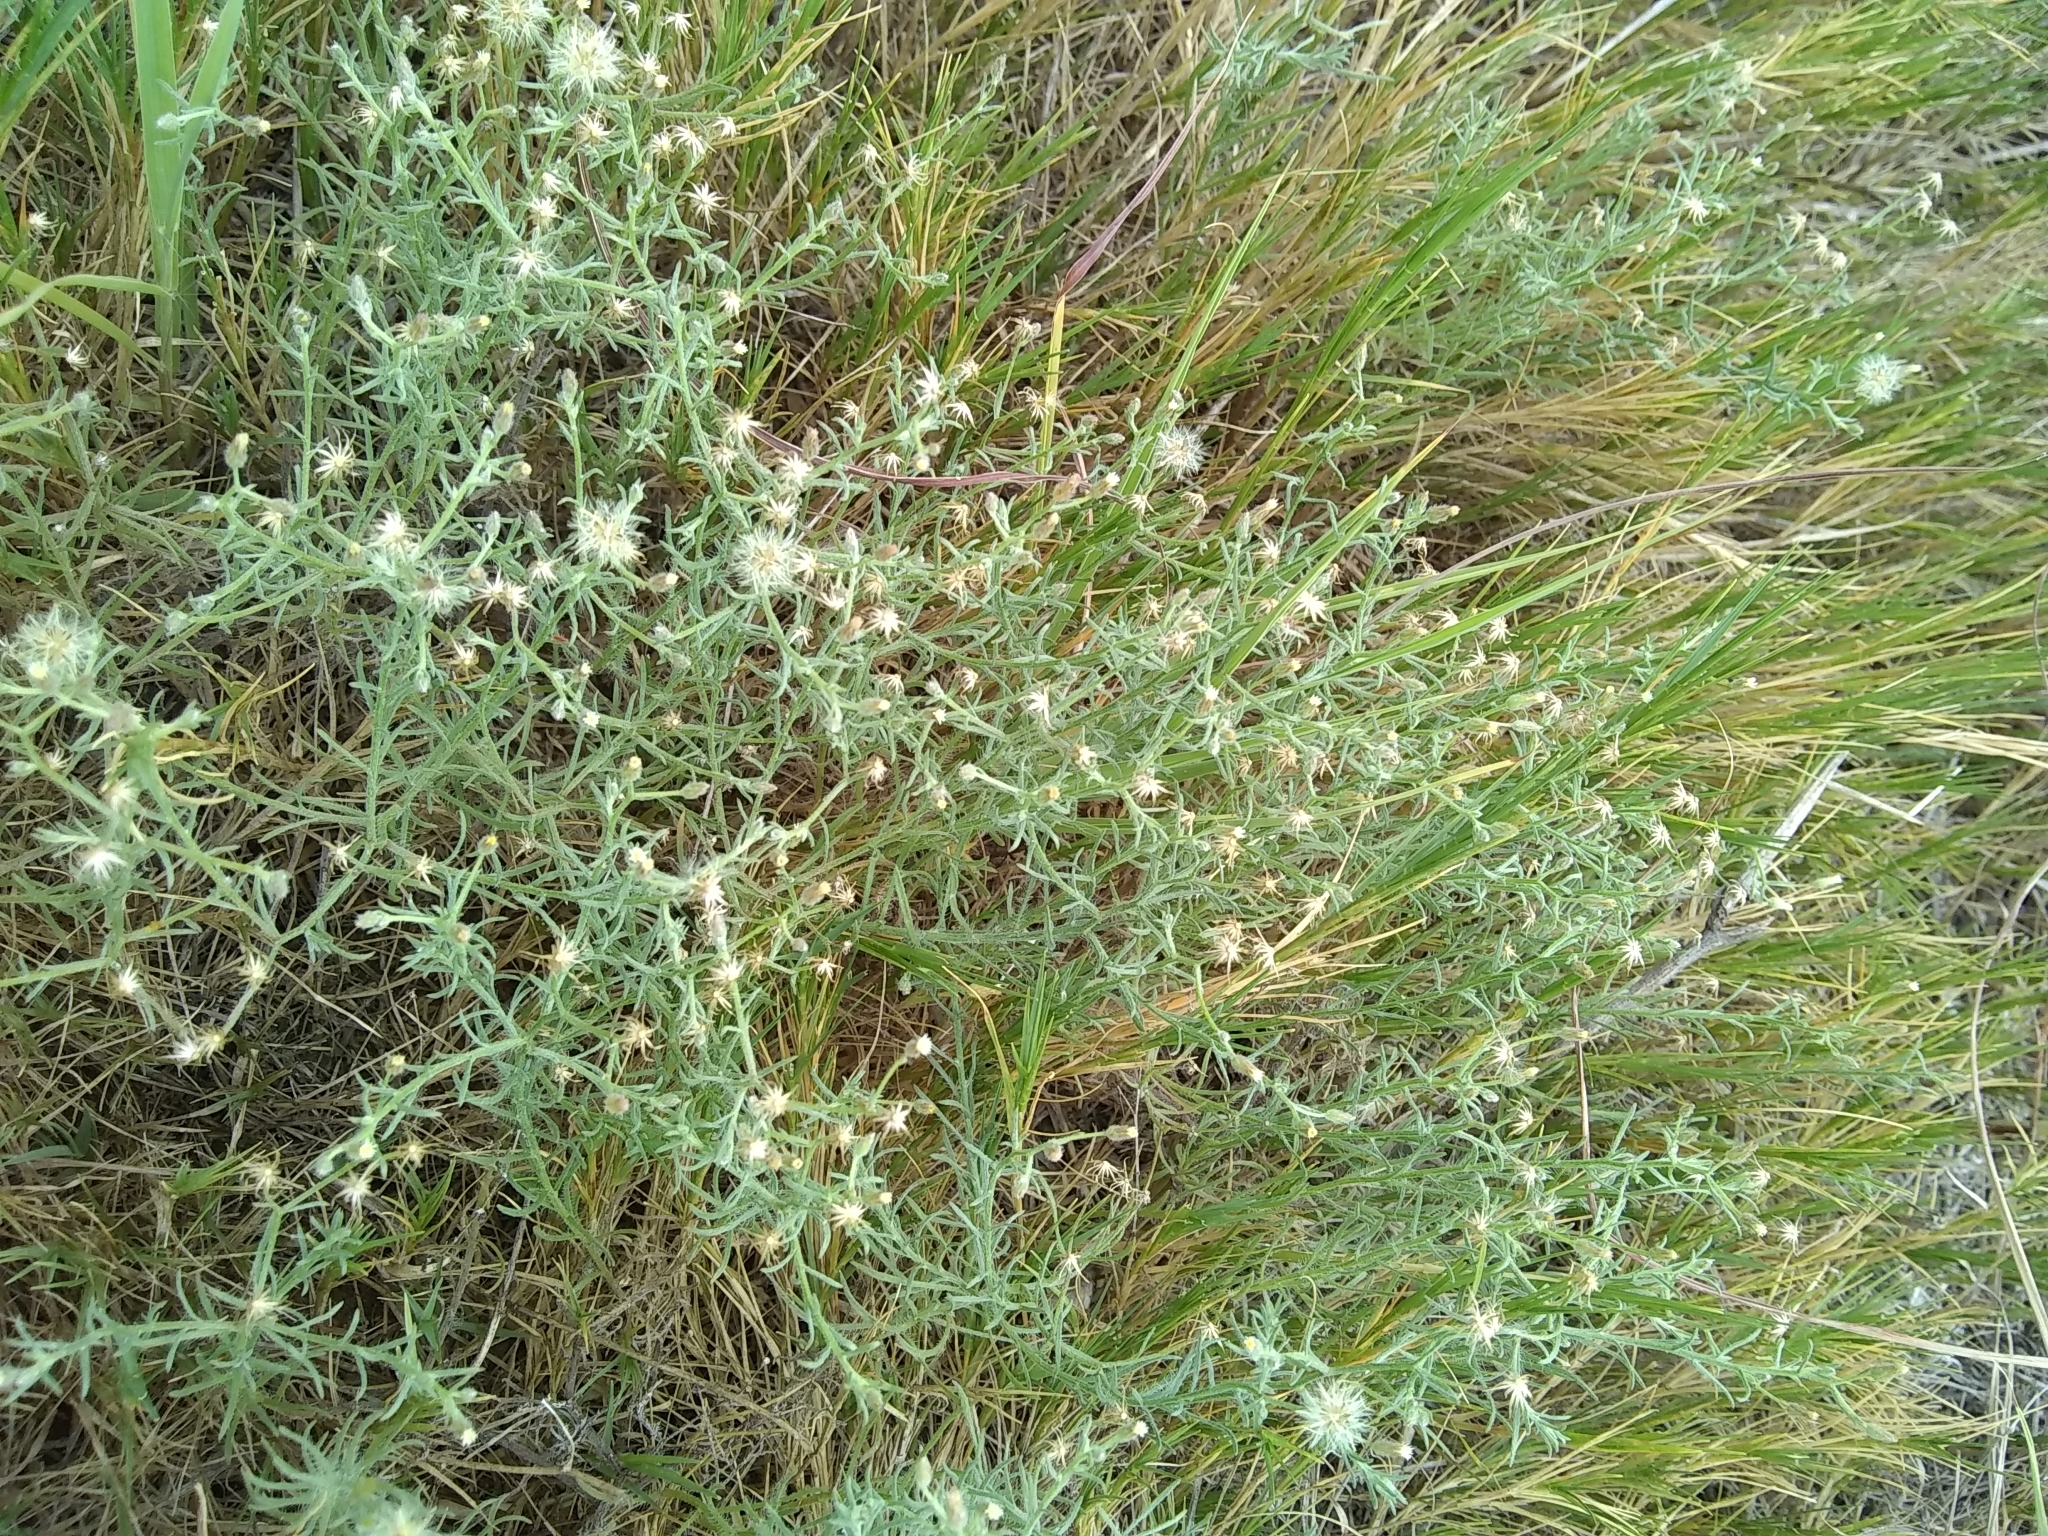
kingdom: Plantae
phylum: Tracheophyta
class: Magnoliopsida
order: Asterales
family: Asteraceae
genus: Erigeron
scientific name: Erigeron divaricatus
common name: Dwarf conyza
